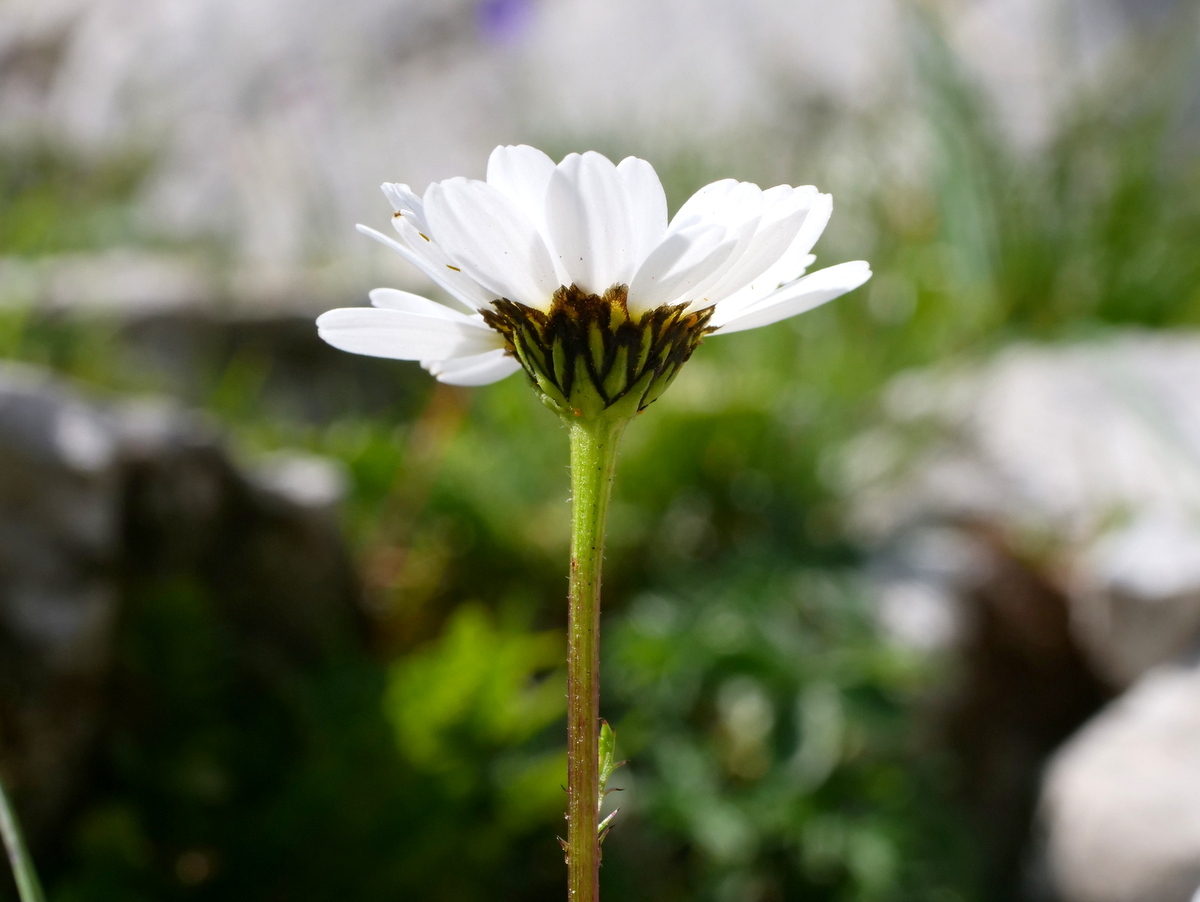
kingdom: Plantae
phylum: Tracheophyta
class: Magnoliopsida
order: Asterales
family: Asteraceae
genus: Leucanthemum
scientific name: Leucanthemum halleri
